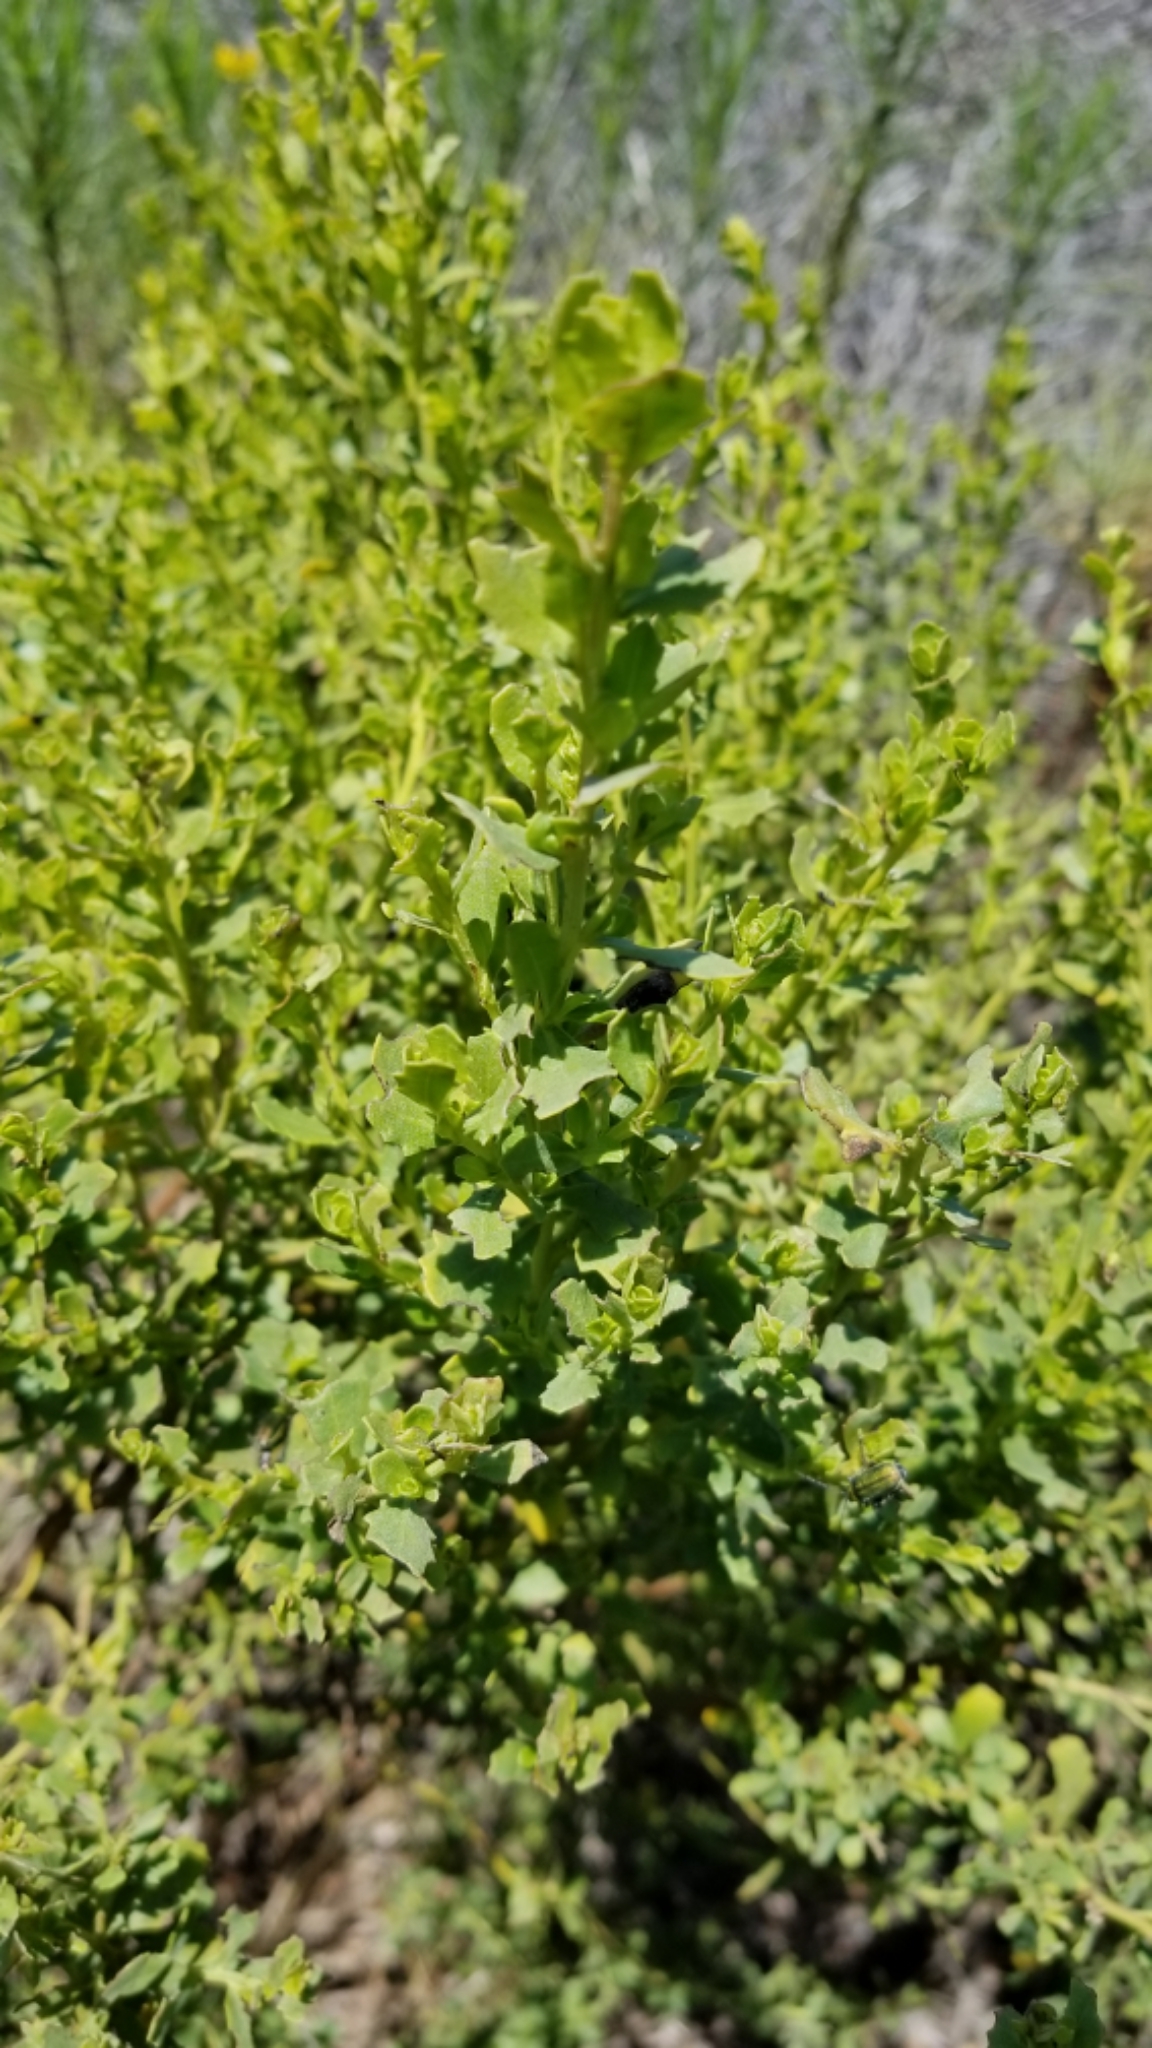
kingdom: Plantae
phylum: Tracheophyta
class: Magnoliopsida
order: Asterales
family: Asteraceae
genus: Baccharis
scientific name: Baccharis pilularis
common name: Coyotebrush
